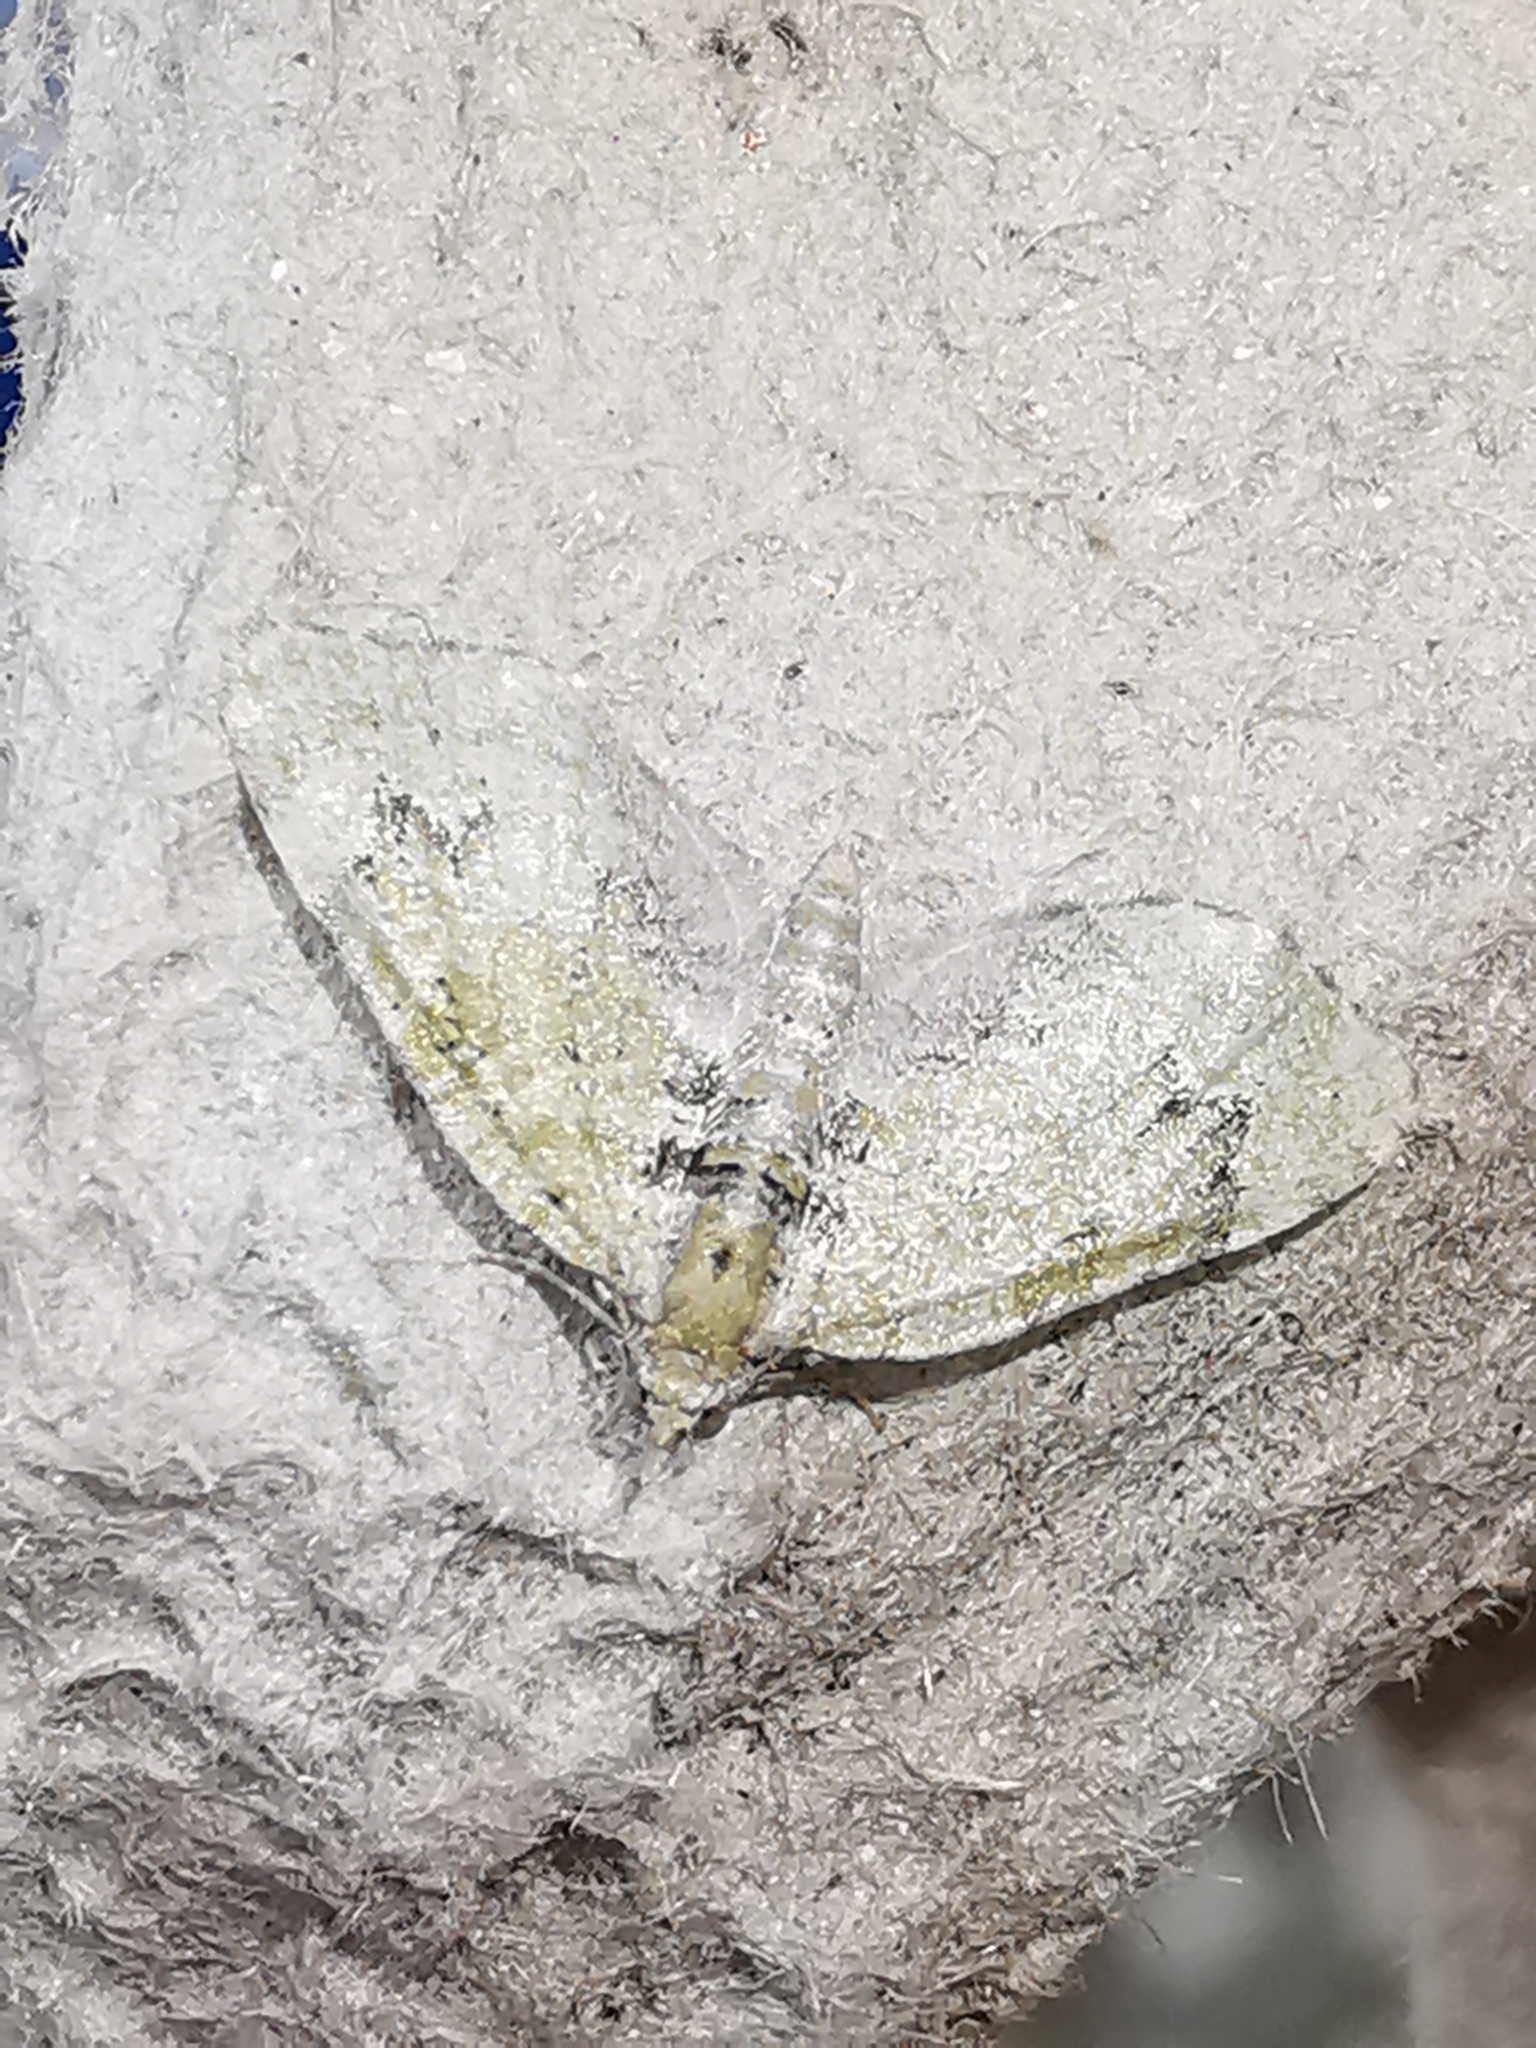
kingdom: Animalia
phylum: Arthropoda
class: Insecta
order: Lepidoptera
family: Geometridae
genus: Chloroclystis
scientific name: Chloroclystis v-ata
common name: V-pug
